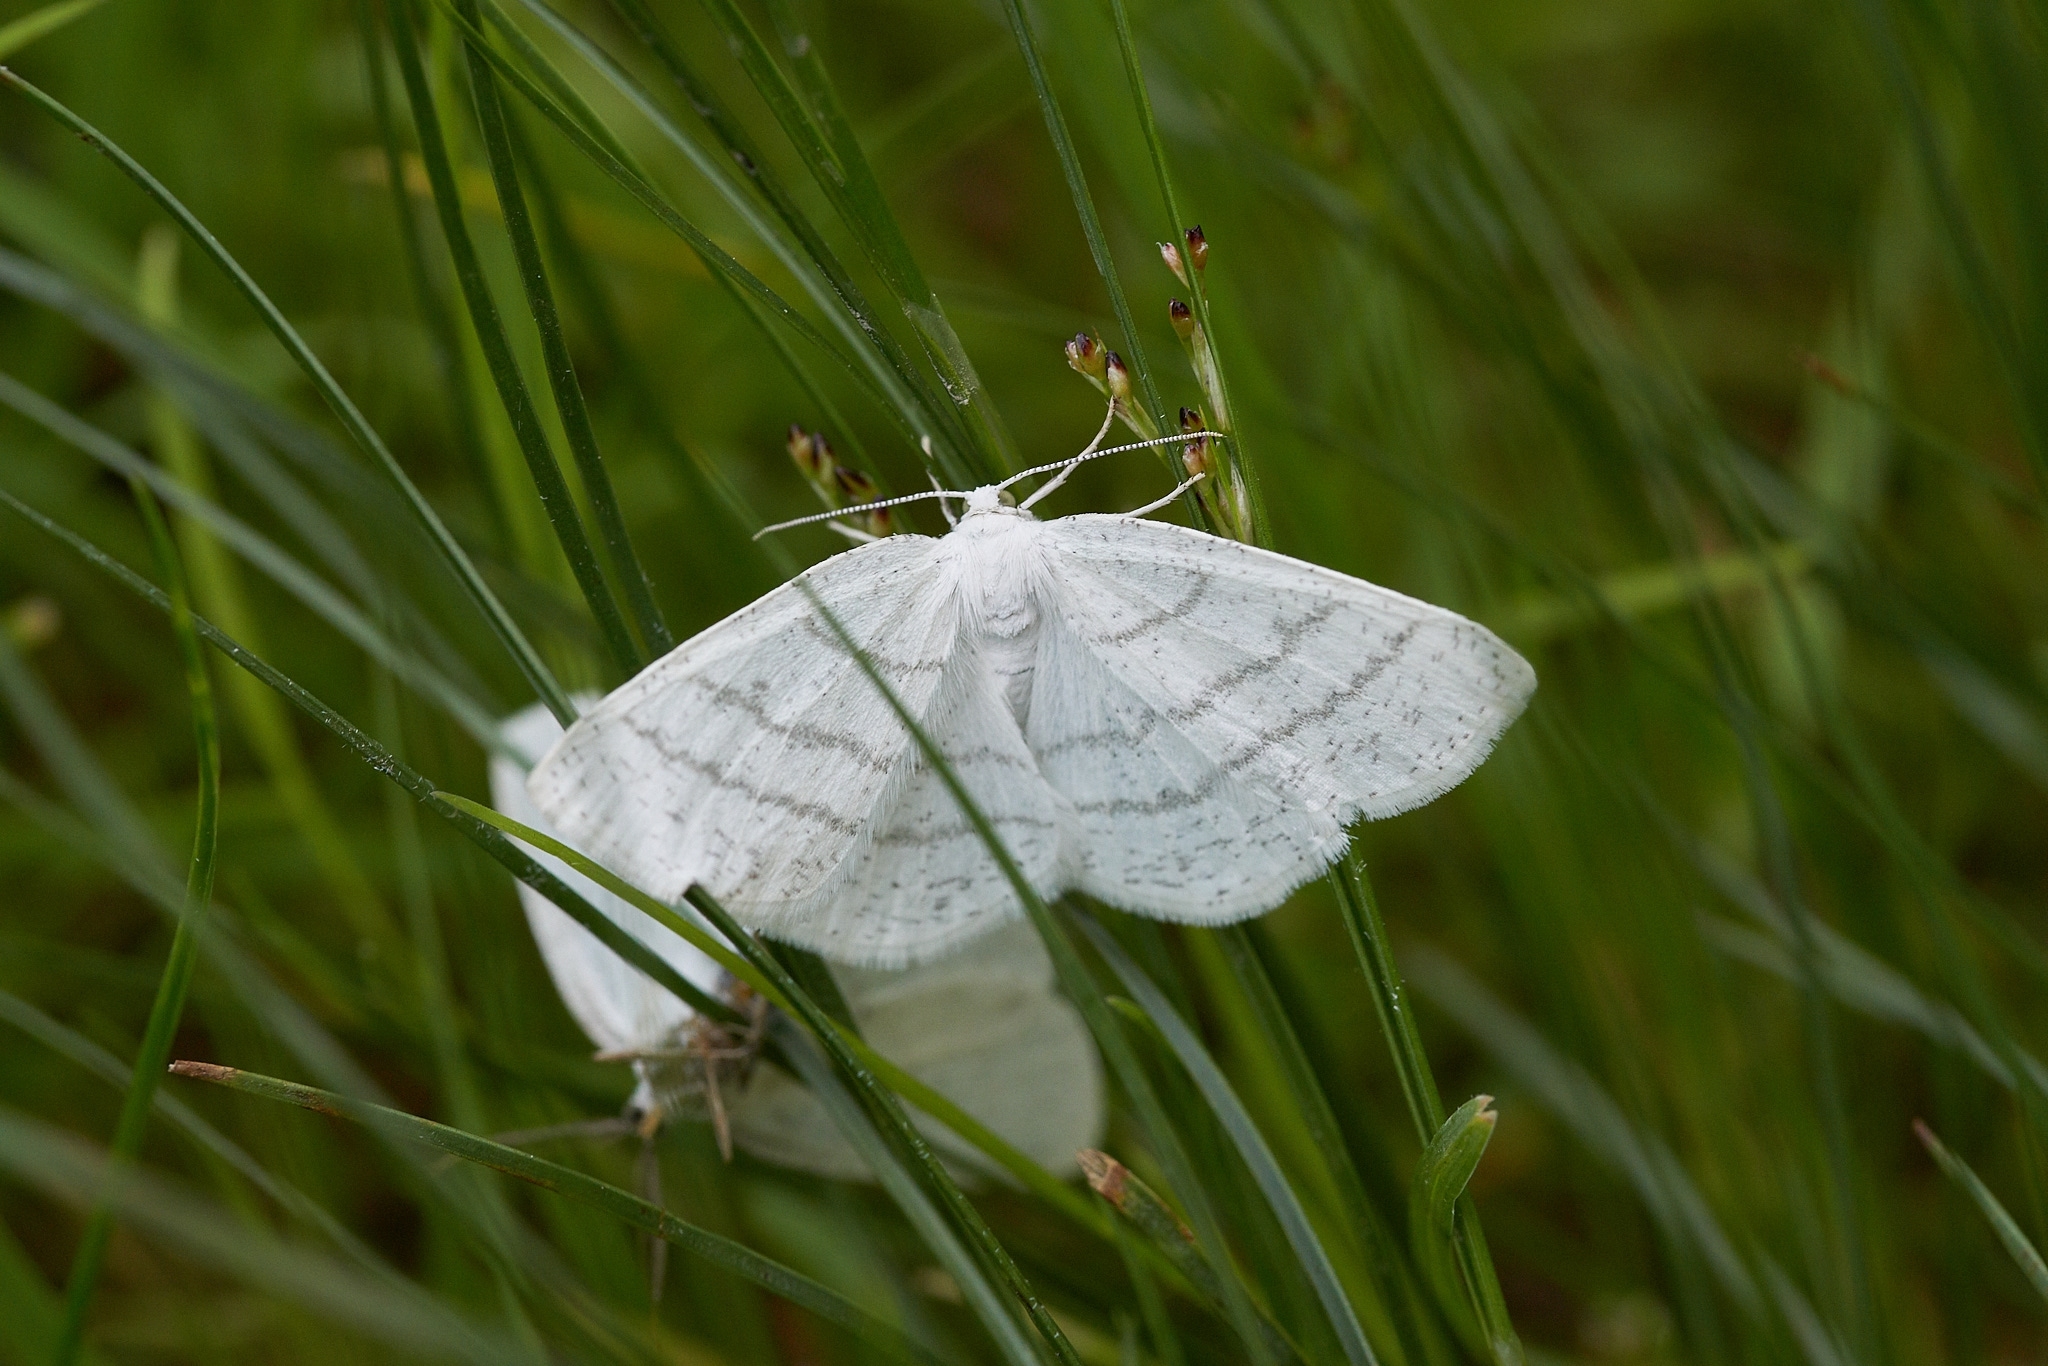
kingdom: Animalia
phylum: Arthropoda
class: Insecta
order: Lepidoptera
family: Geometridae
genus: Cabera
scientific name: Cabera pusaria
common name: Common white wave
